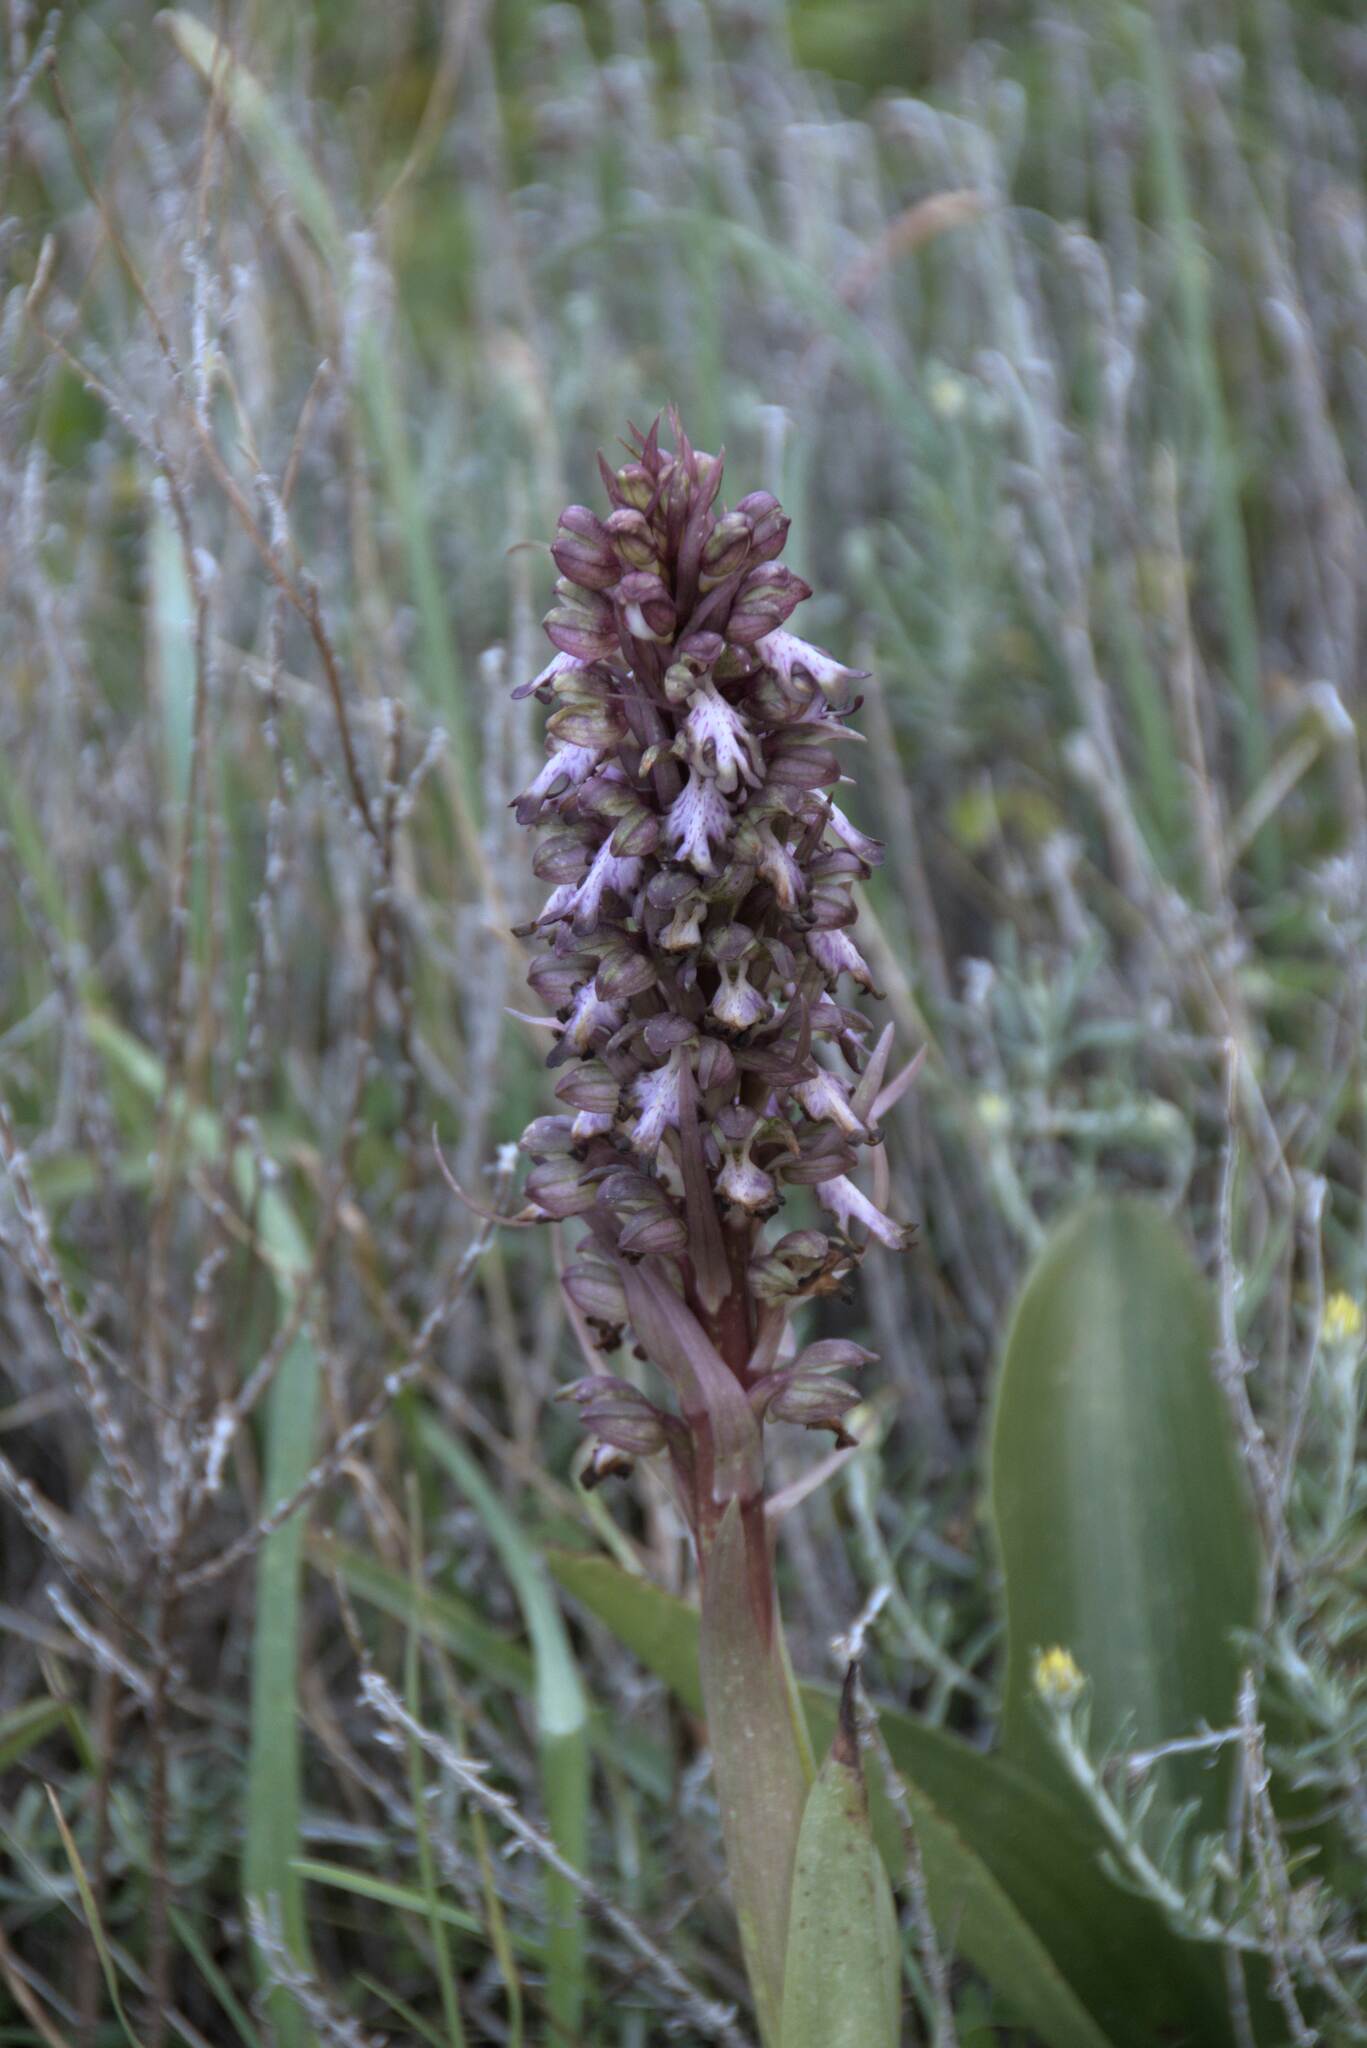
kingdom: Plantae
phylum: Tracheophyta
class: Liliopsida
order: Asparagales
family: Orchidaceae
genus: Himantoglossum
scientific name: Himantoglossum robertianum
